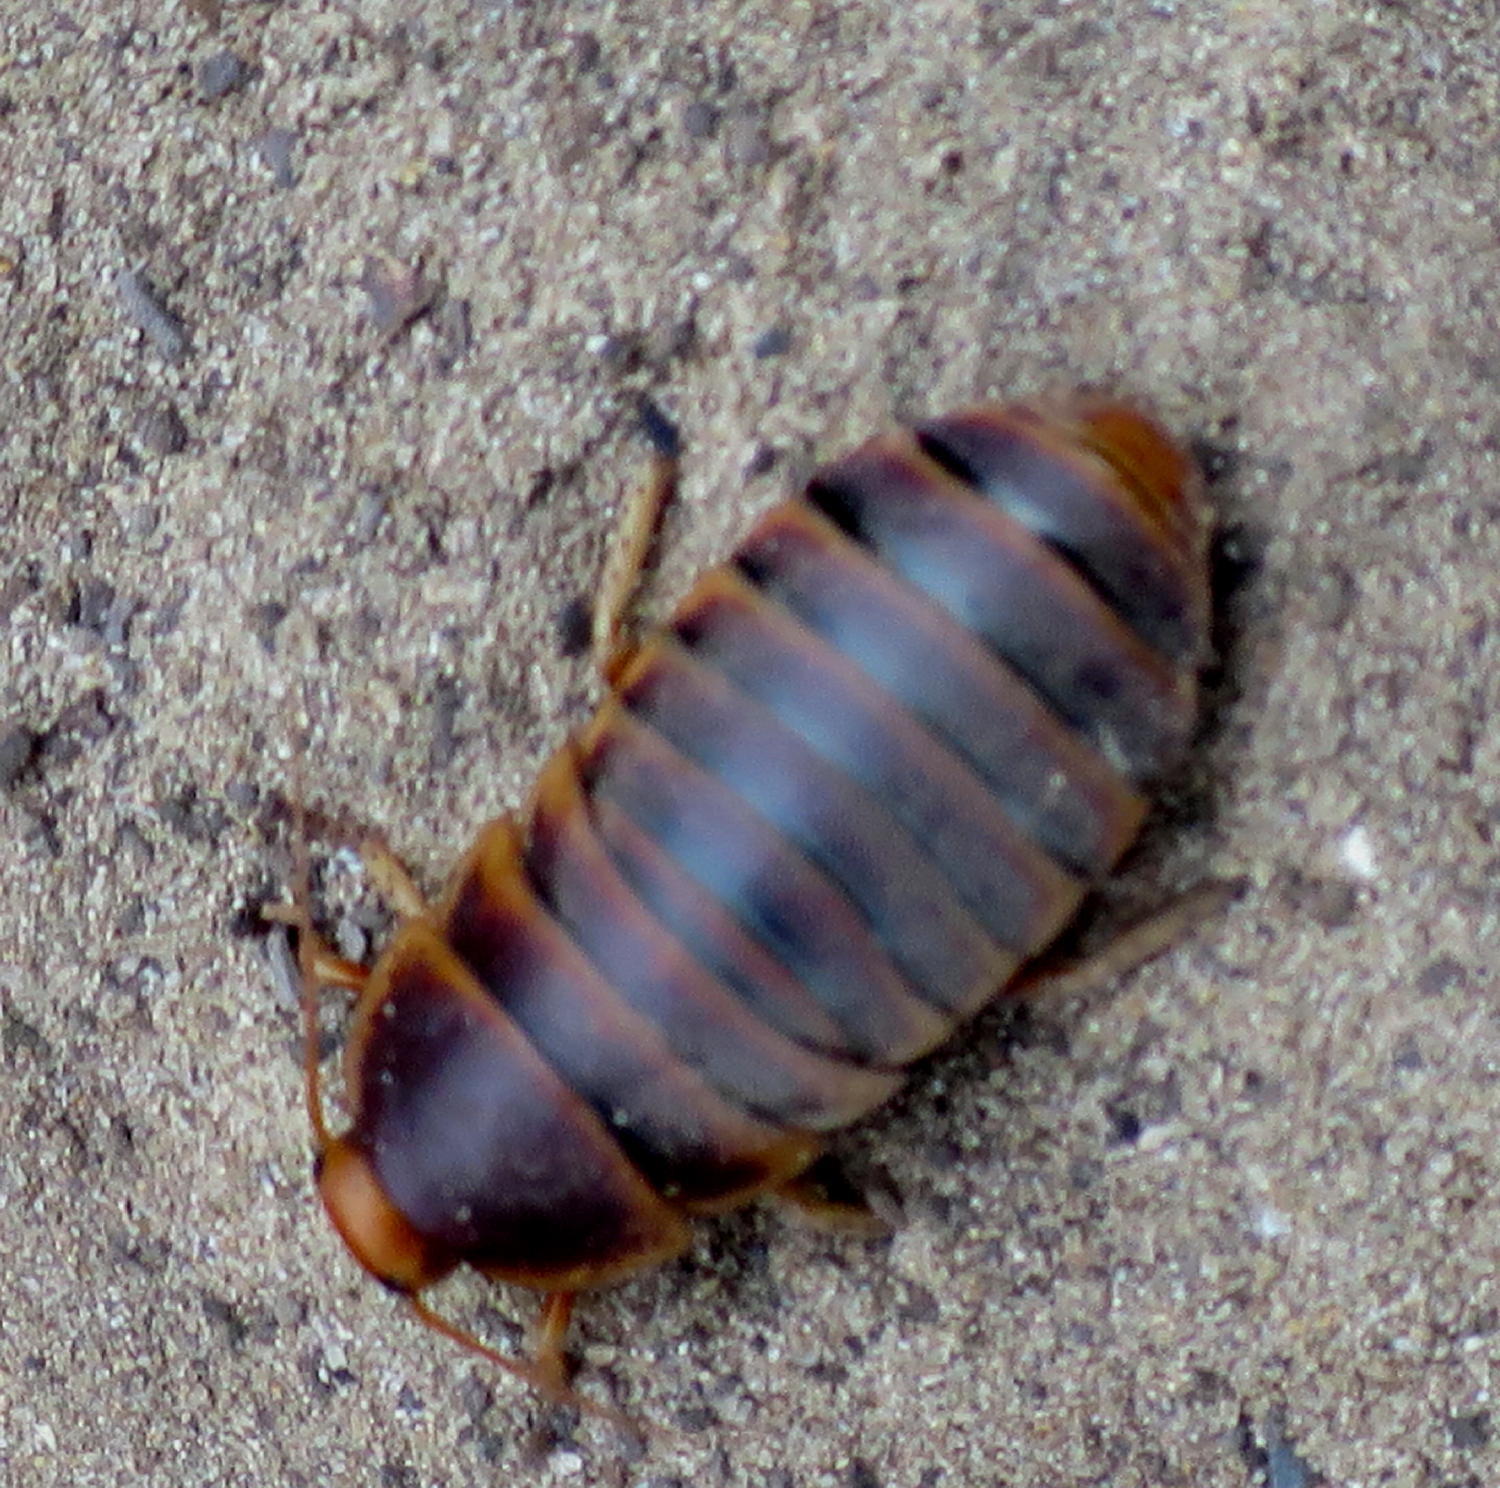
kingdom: Animalia
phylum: Arthropoda
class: Insecta
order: Blattodea
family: Blaberidae
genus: Aptera
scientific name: Aptera fusca
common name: Cape mountain cockroach
